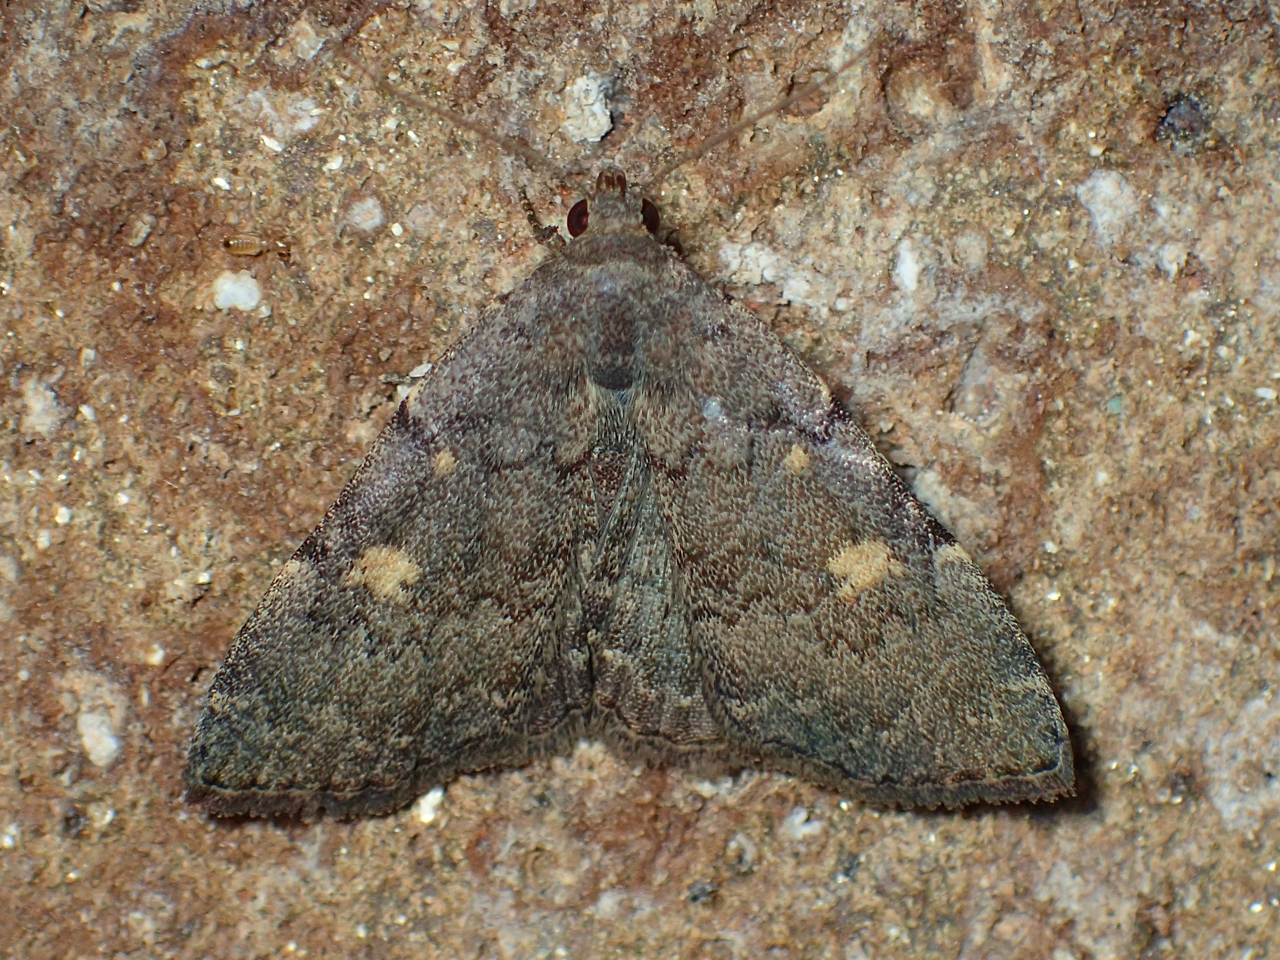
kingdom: Animalia
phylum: Arthropoda
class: Insecta
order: Lepidoptera
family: Erebidae
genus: Idia
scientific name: Idia aemula
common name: Common idia moth
